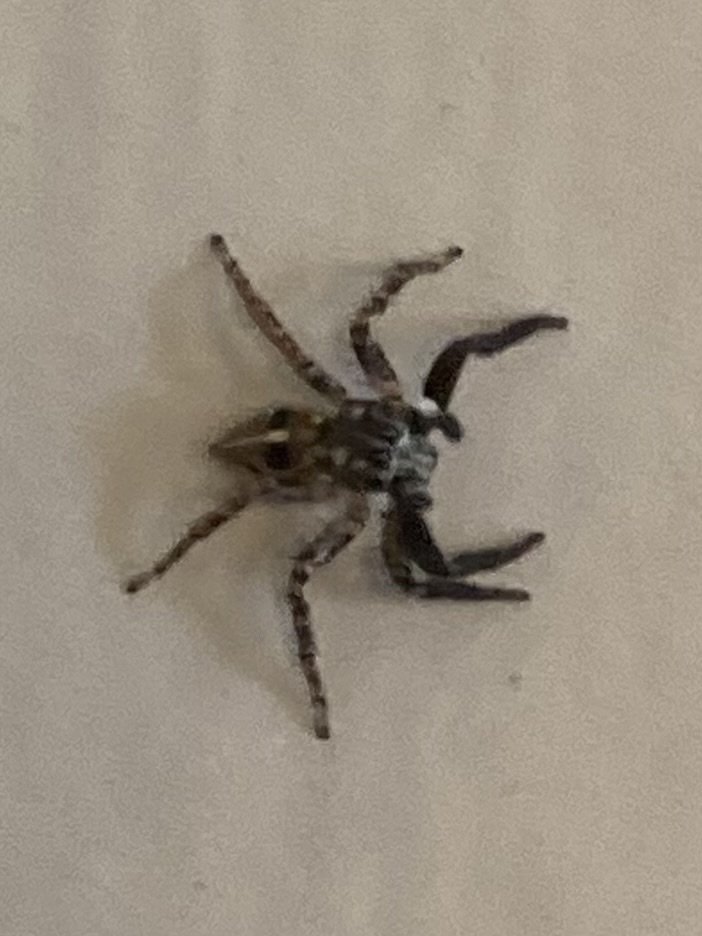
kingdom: Animalia
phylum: Arthropoda
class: Arachnida
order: Araneae
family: Salticidae
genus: Anasaitis
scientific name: Anasaitis canosa
